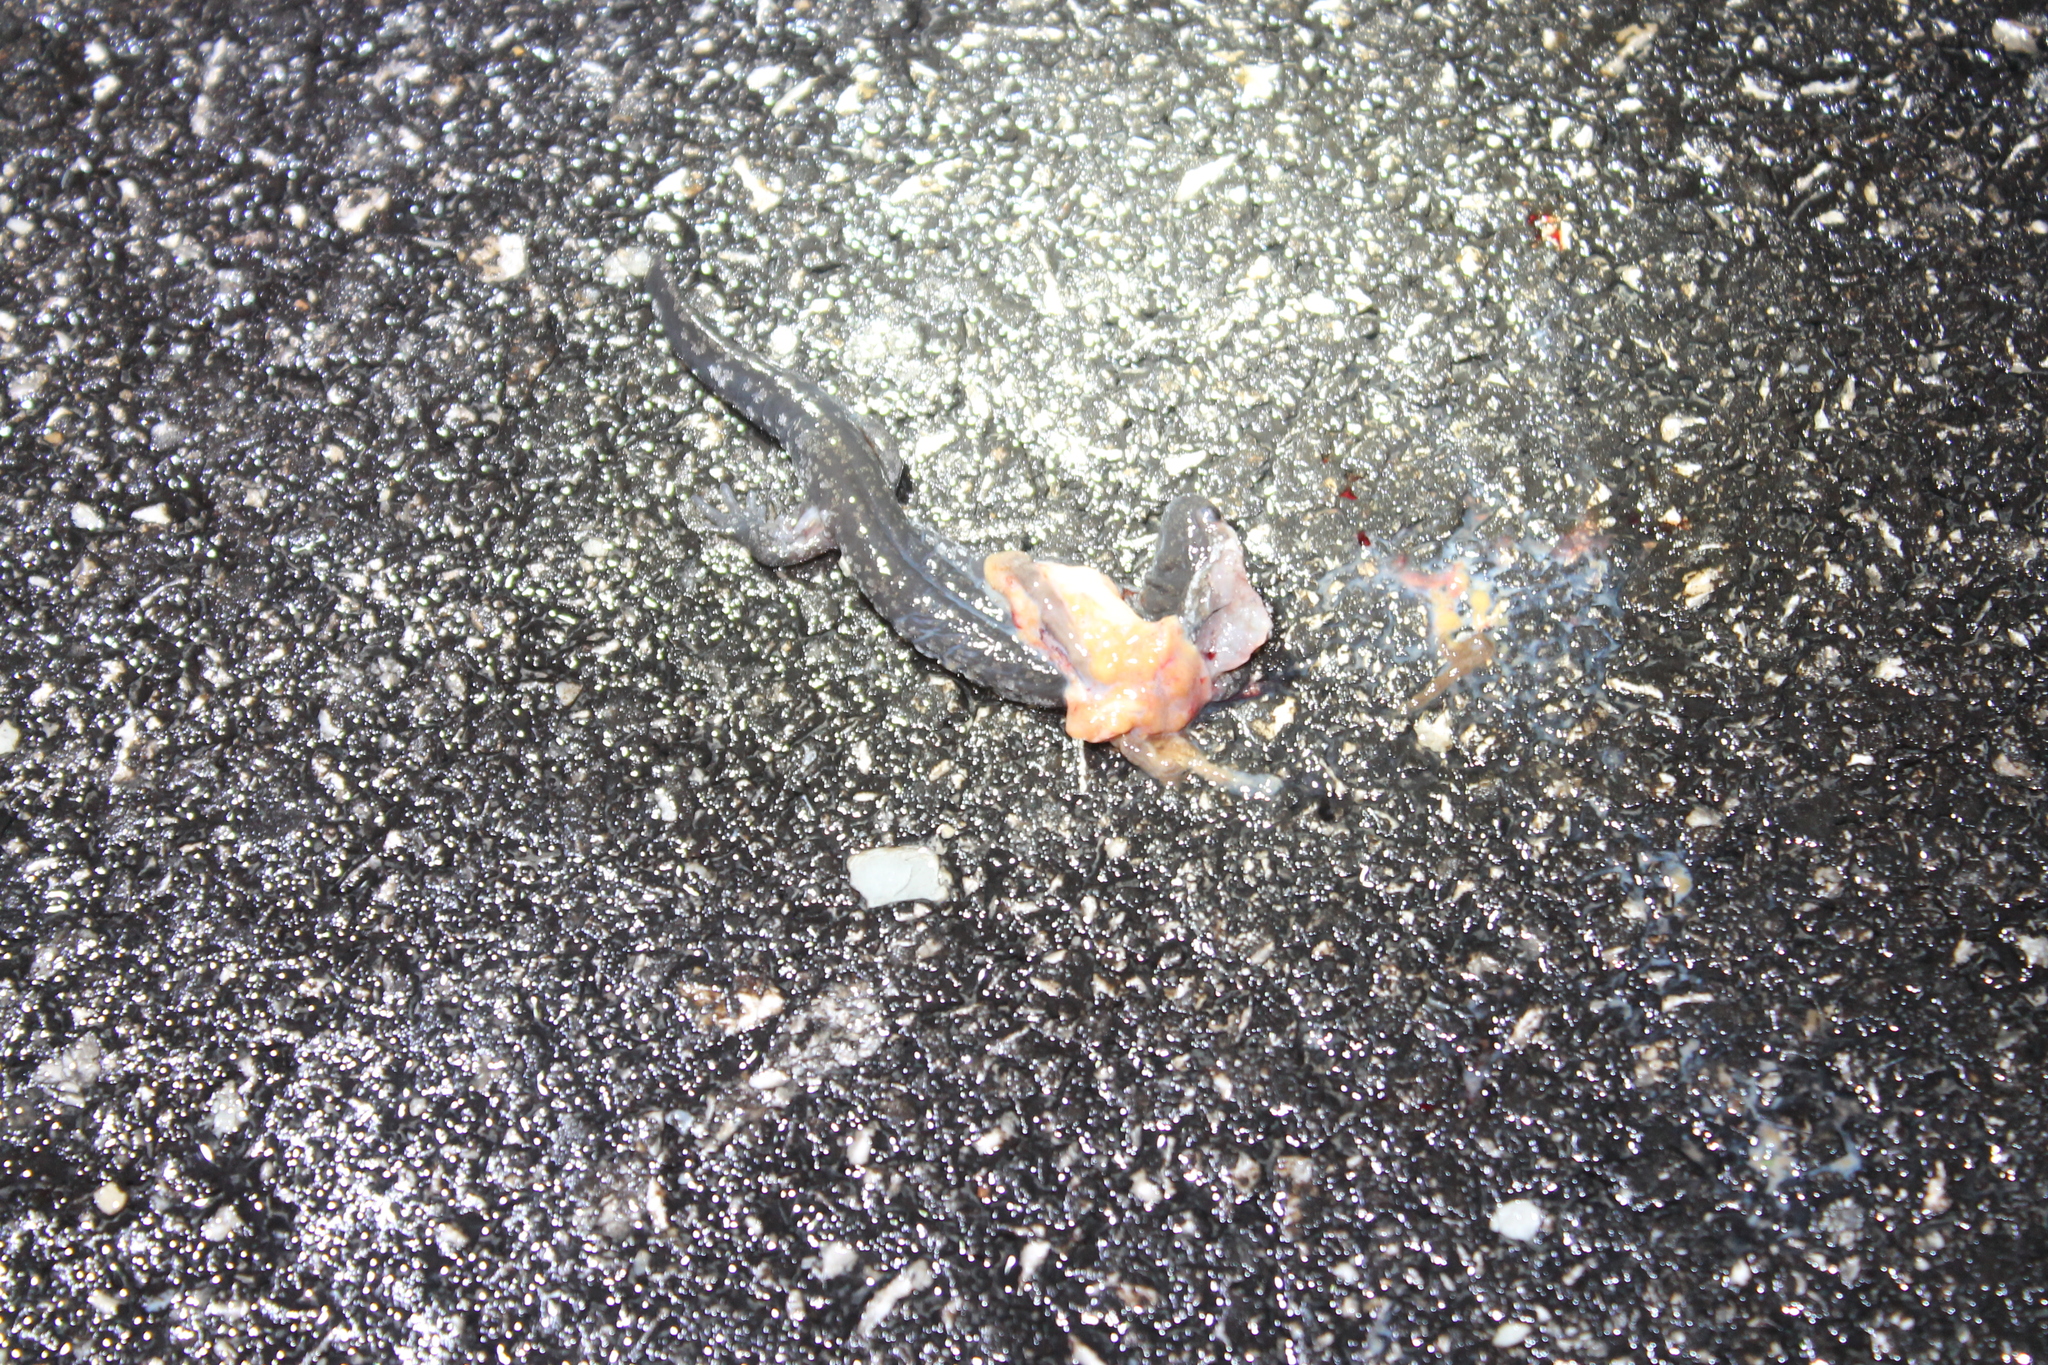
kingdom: Animalia
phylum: Chordata
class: Amphibia
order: Caudata
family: Ambystomatidae
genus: Ambystoma
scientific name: Ambystoma texanum
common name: Small-mouth salamander
